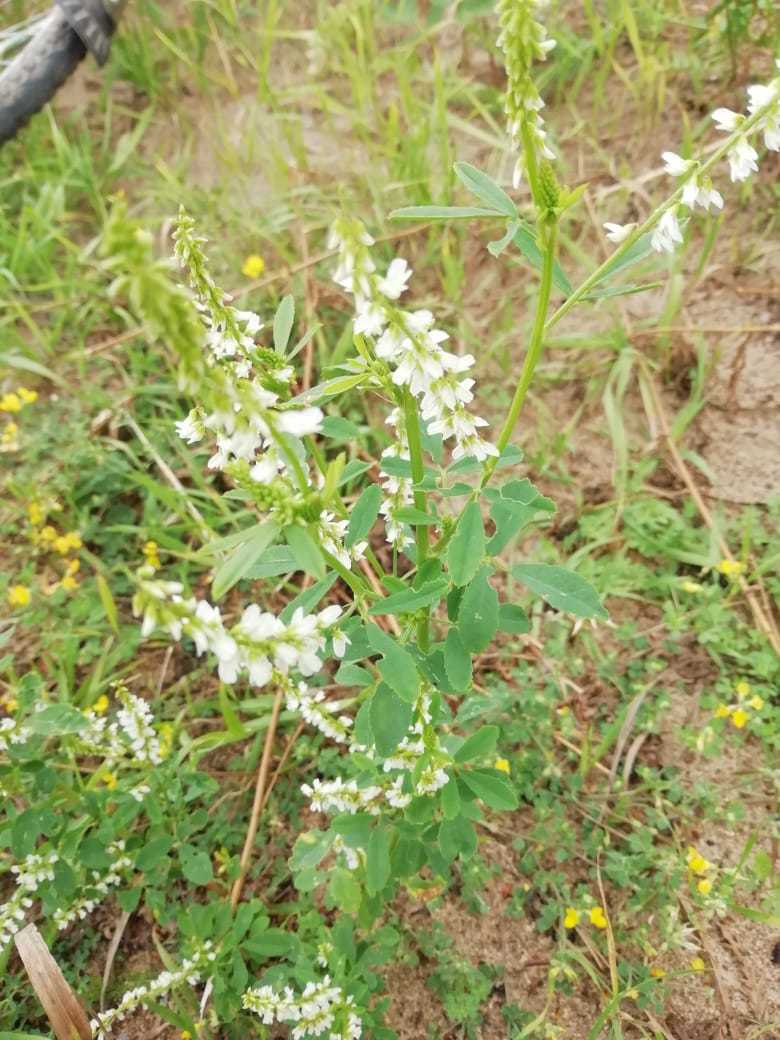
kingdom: Plantae
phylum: Tracheophyta
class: Magnoliopsida
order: Fabales
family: Fabaceae
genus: Melilotus
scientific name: Melilotus albus
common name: White melilot
